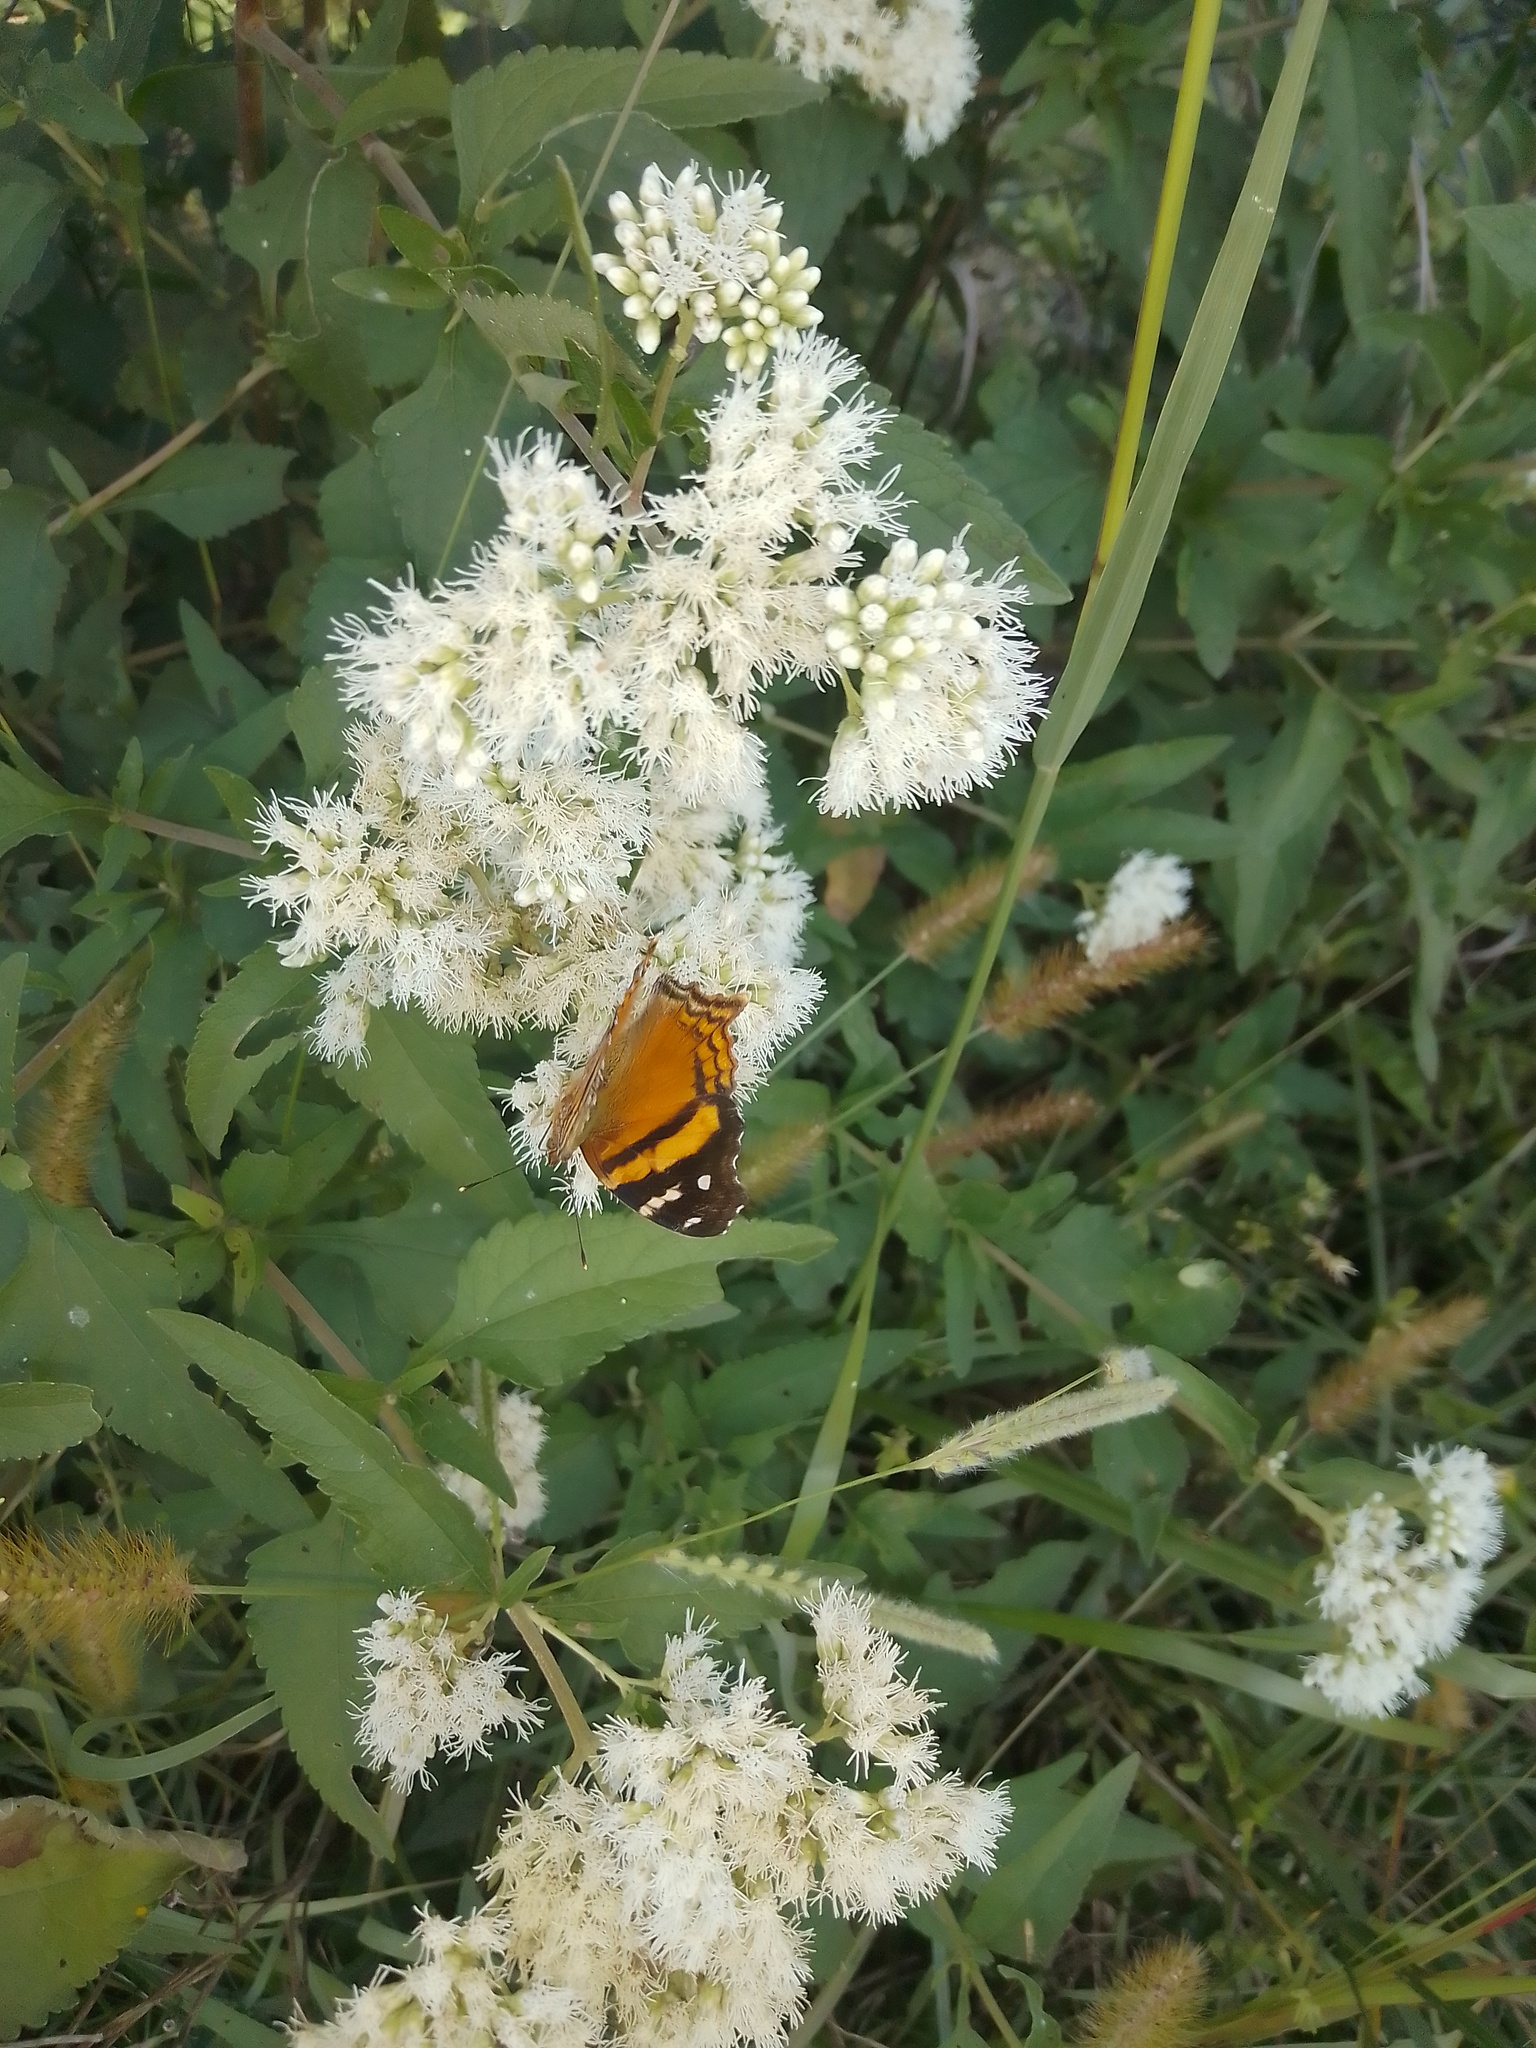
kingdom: Animalia
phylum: Arthropoda
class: Insecta
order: Lepidoptera
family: Nymphalidae
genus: Hypanartia
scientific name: Hypanartia bella
